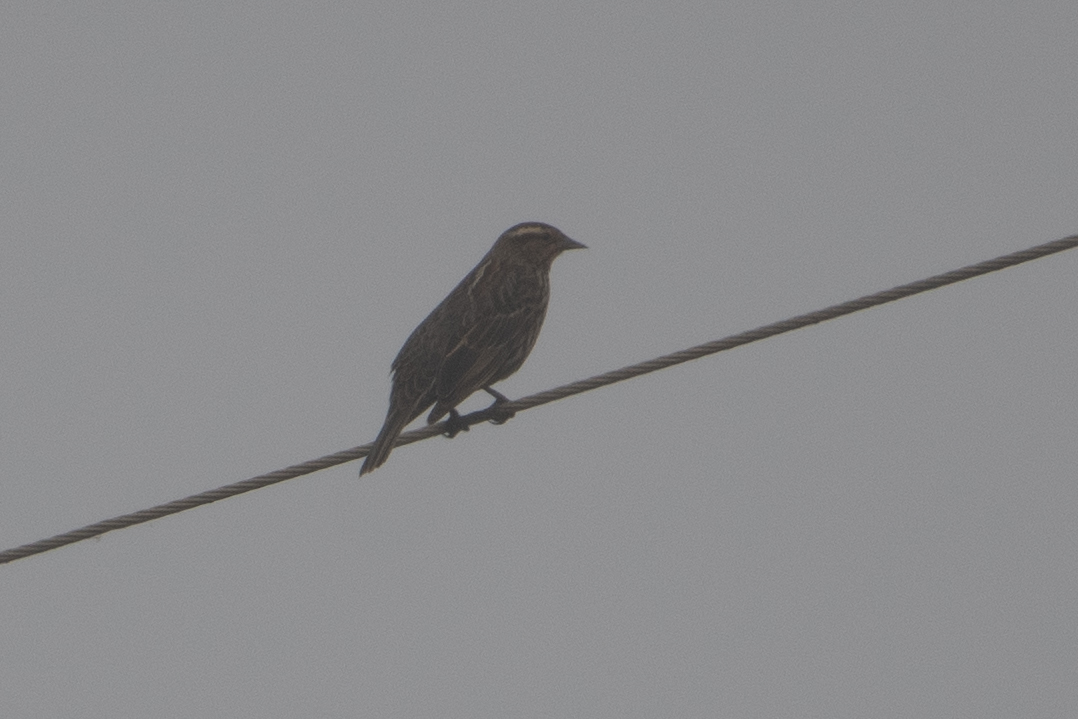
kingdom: Animalia
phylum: Chordata
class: Aves
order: Passeriformes
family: Icteridae
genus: Agelaius
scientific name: Agelaius phoeniceus
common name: Red-winged blackbird
